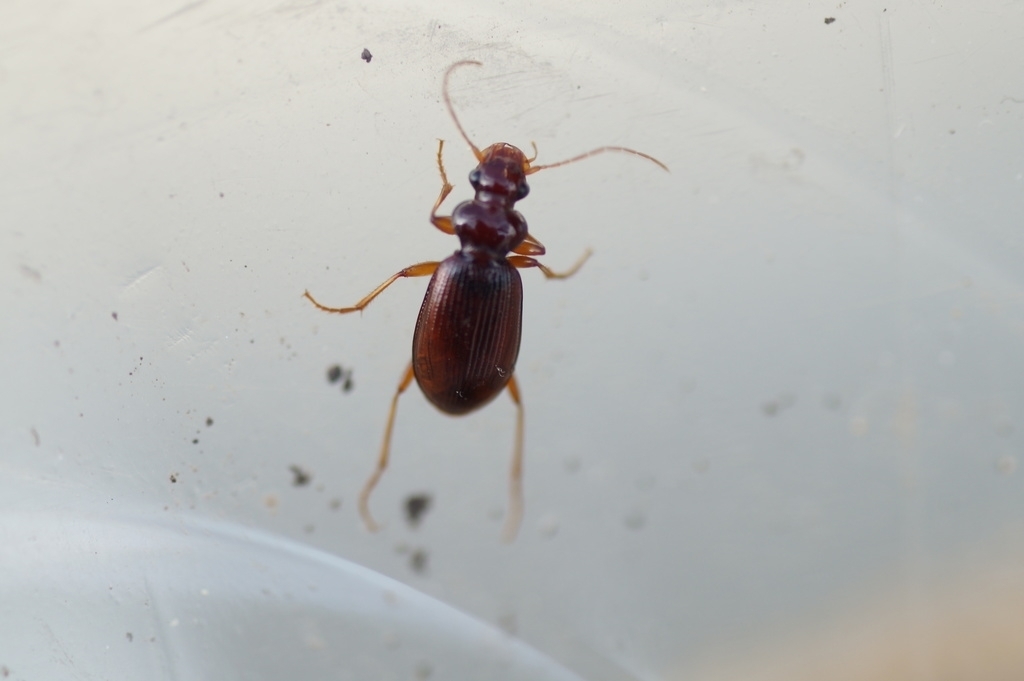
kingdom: Animalia
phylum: Arthropoda
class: Insecta
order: Coleoptera
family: Carabidae
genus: Leistus
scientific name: Leistus ferrugineus
